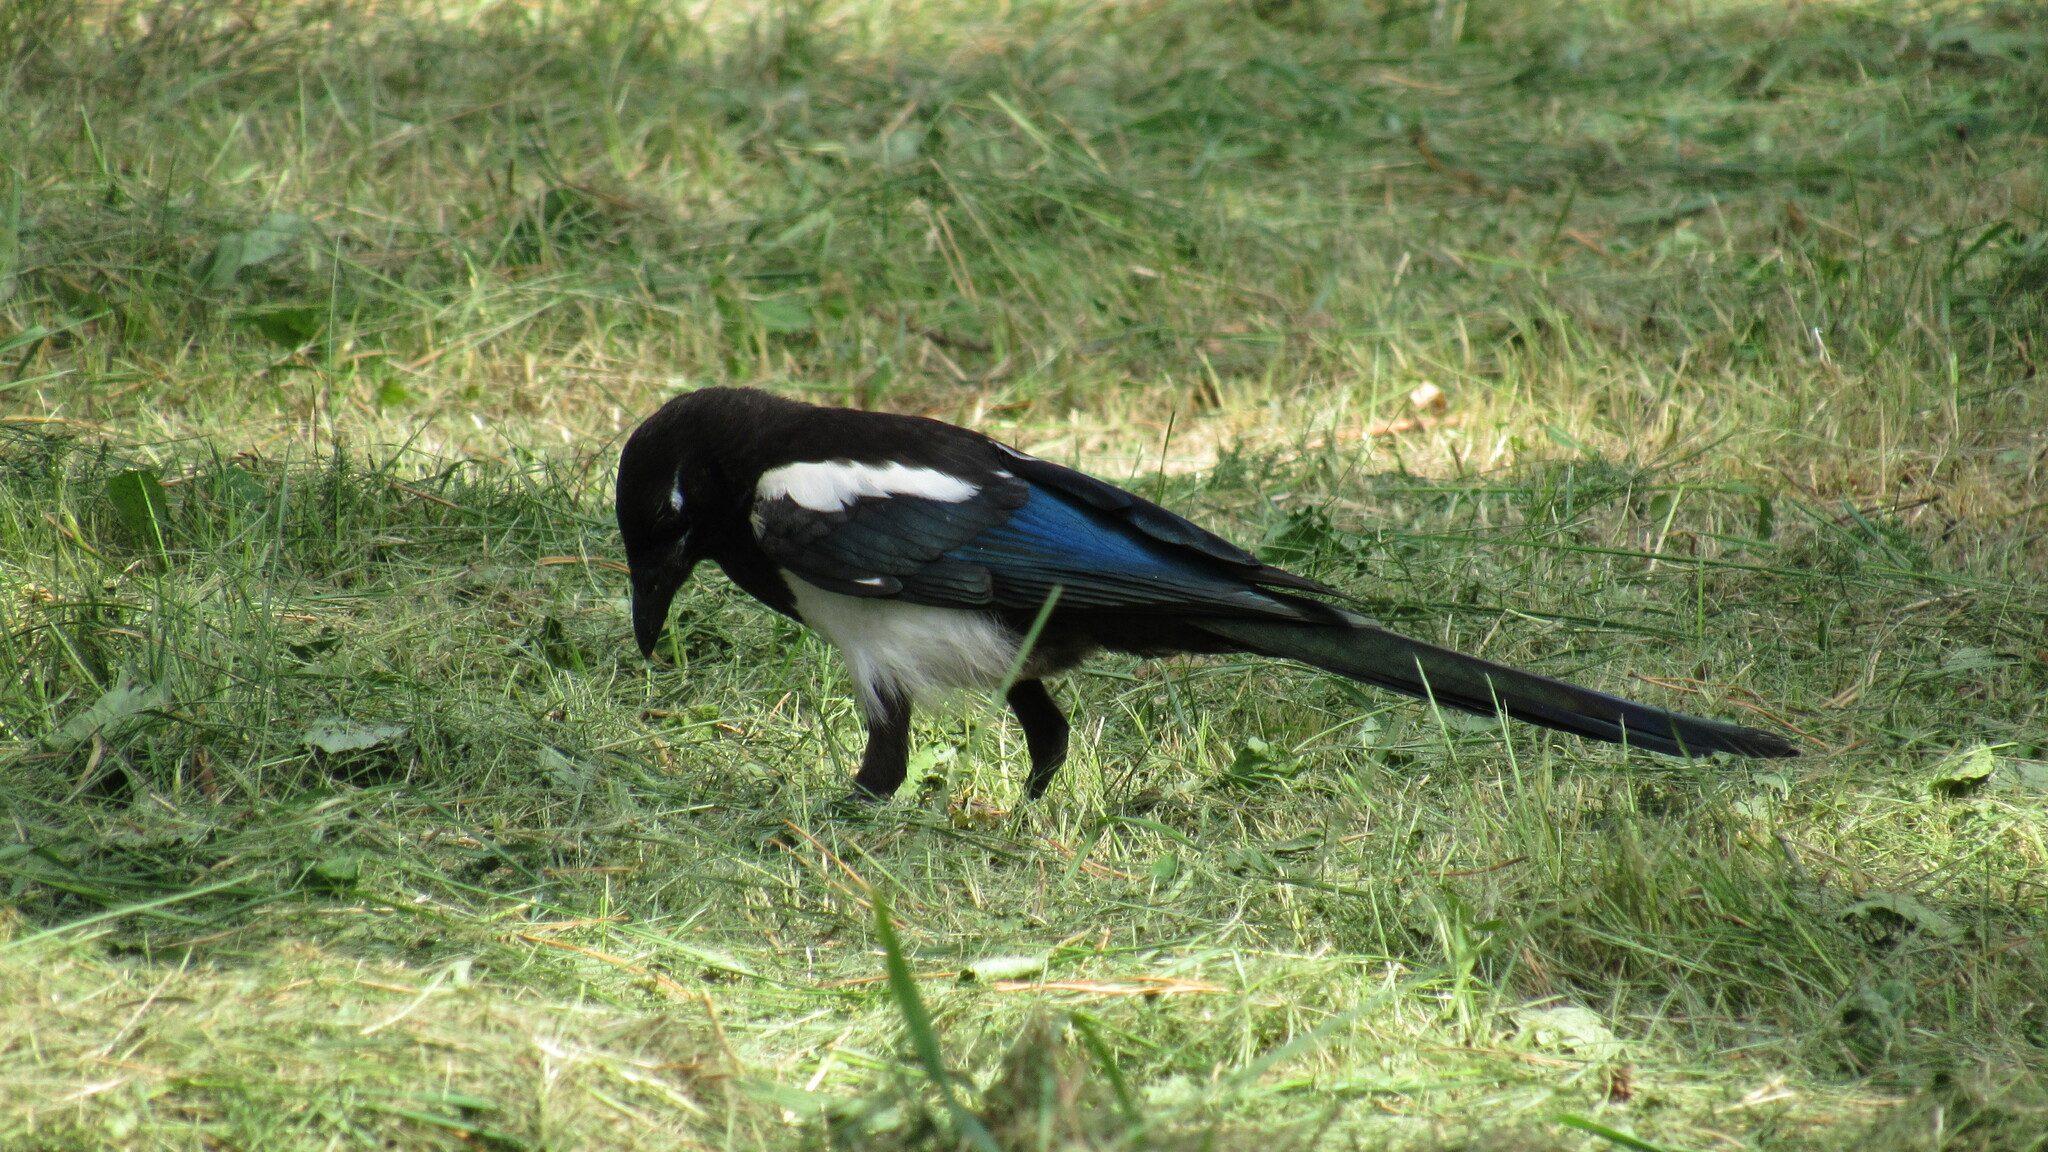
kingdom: Animalia
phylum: Chordata
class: Aves
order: Passeriformes
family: Corvidae
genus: Pica
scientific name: Pica serica
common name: Oriental magpie
